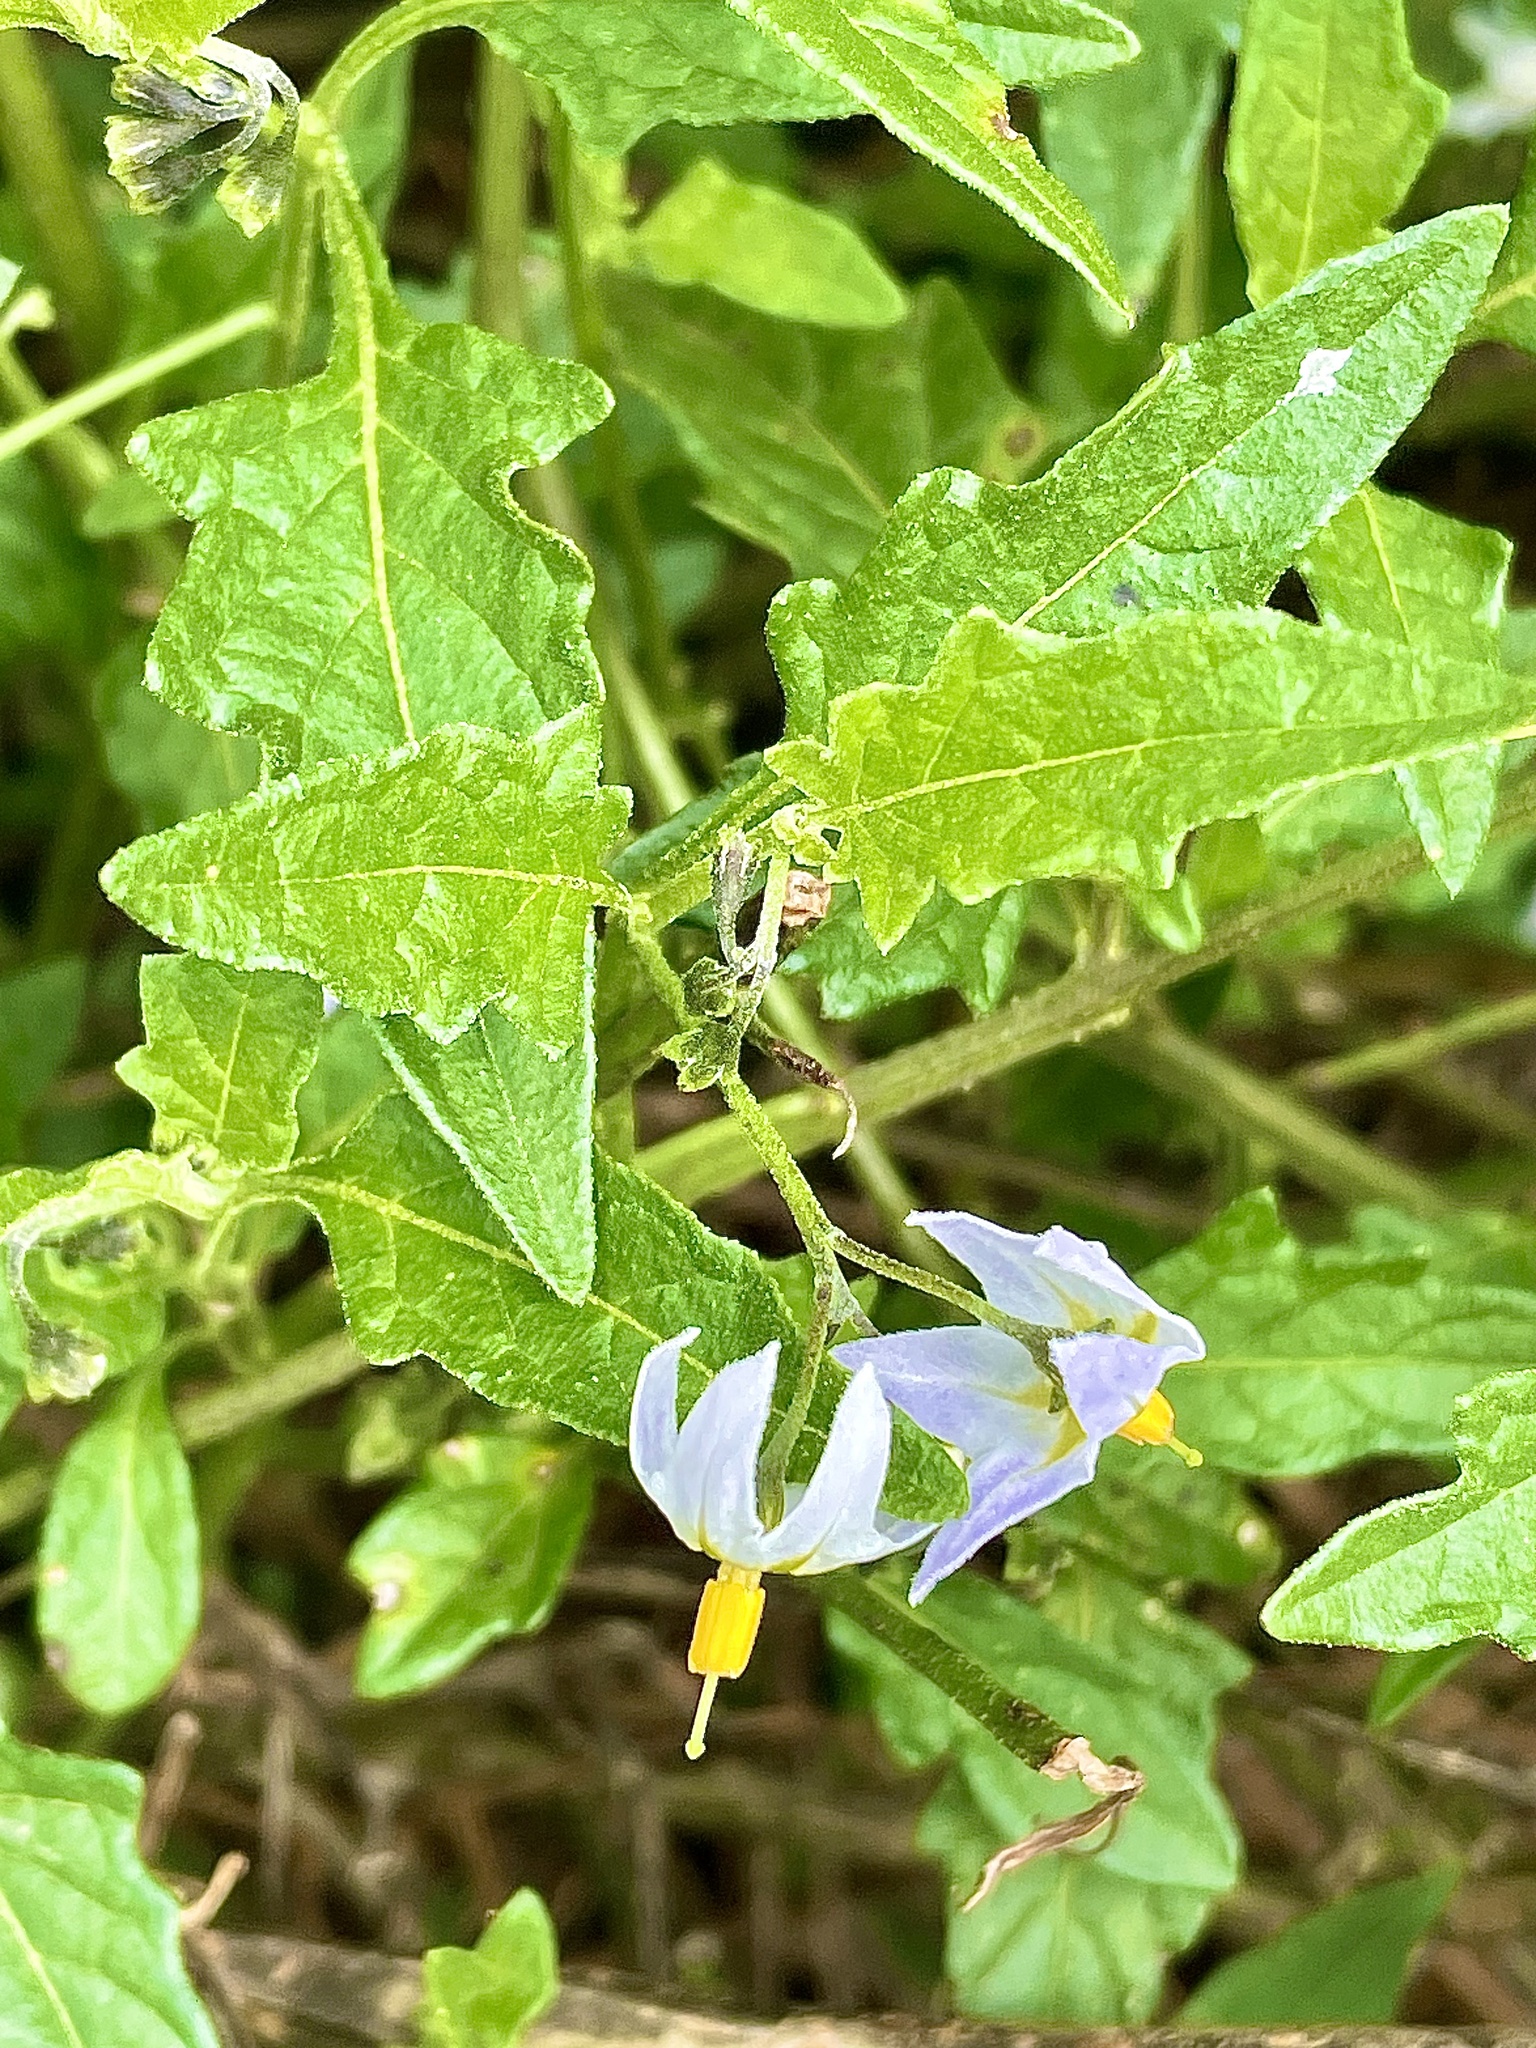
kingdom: Plantae
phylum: Tracheophyta
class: Magnoliopsida
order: Solanales
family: Solanaceae
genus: Solanum
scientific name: Solanum furcatum
